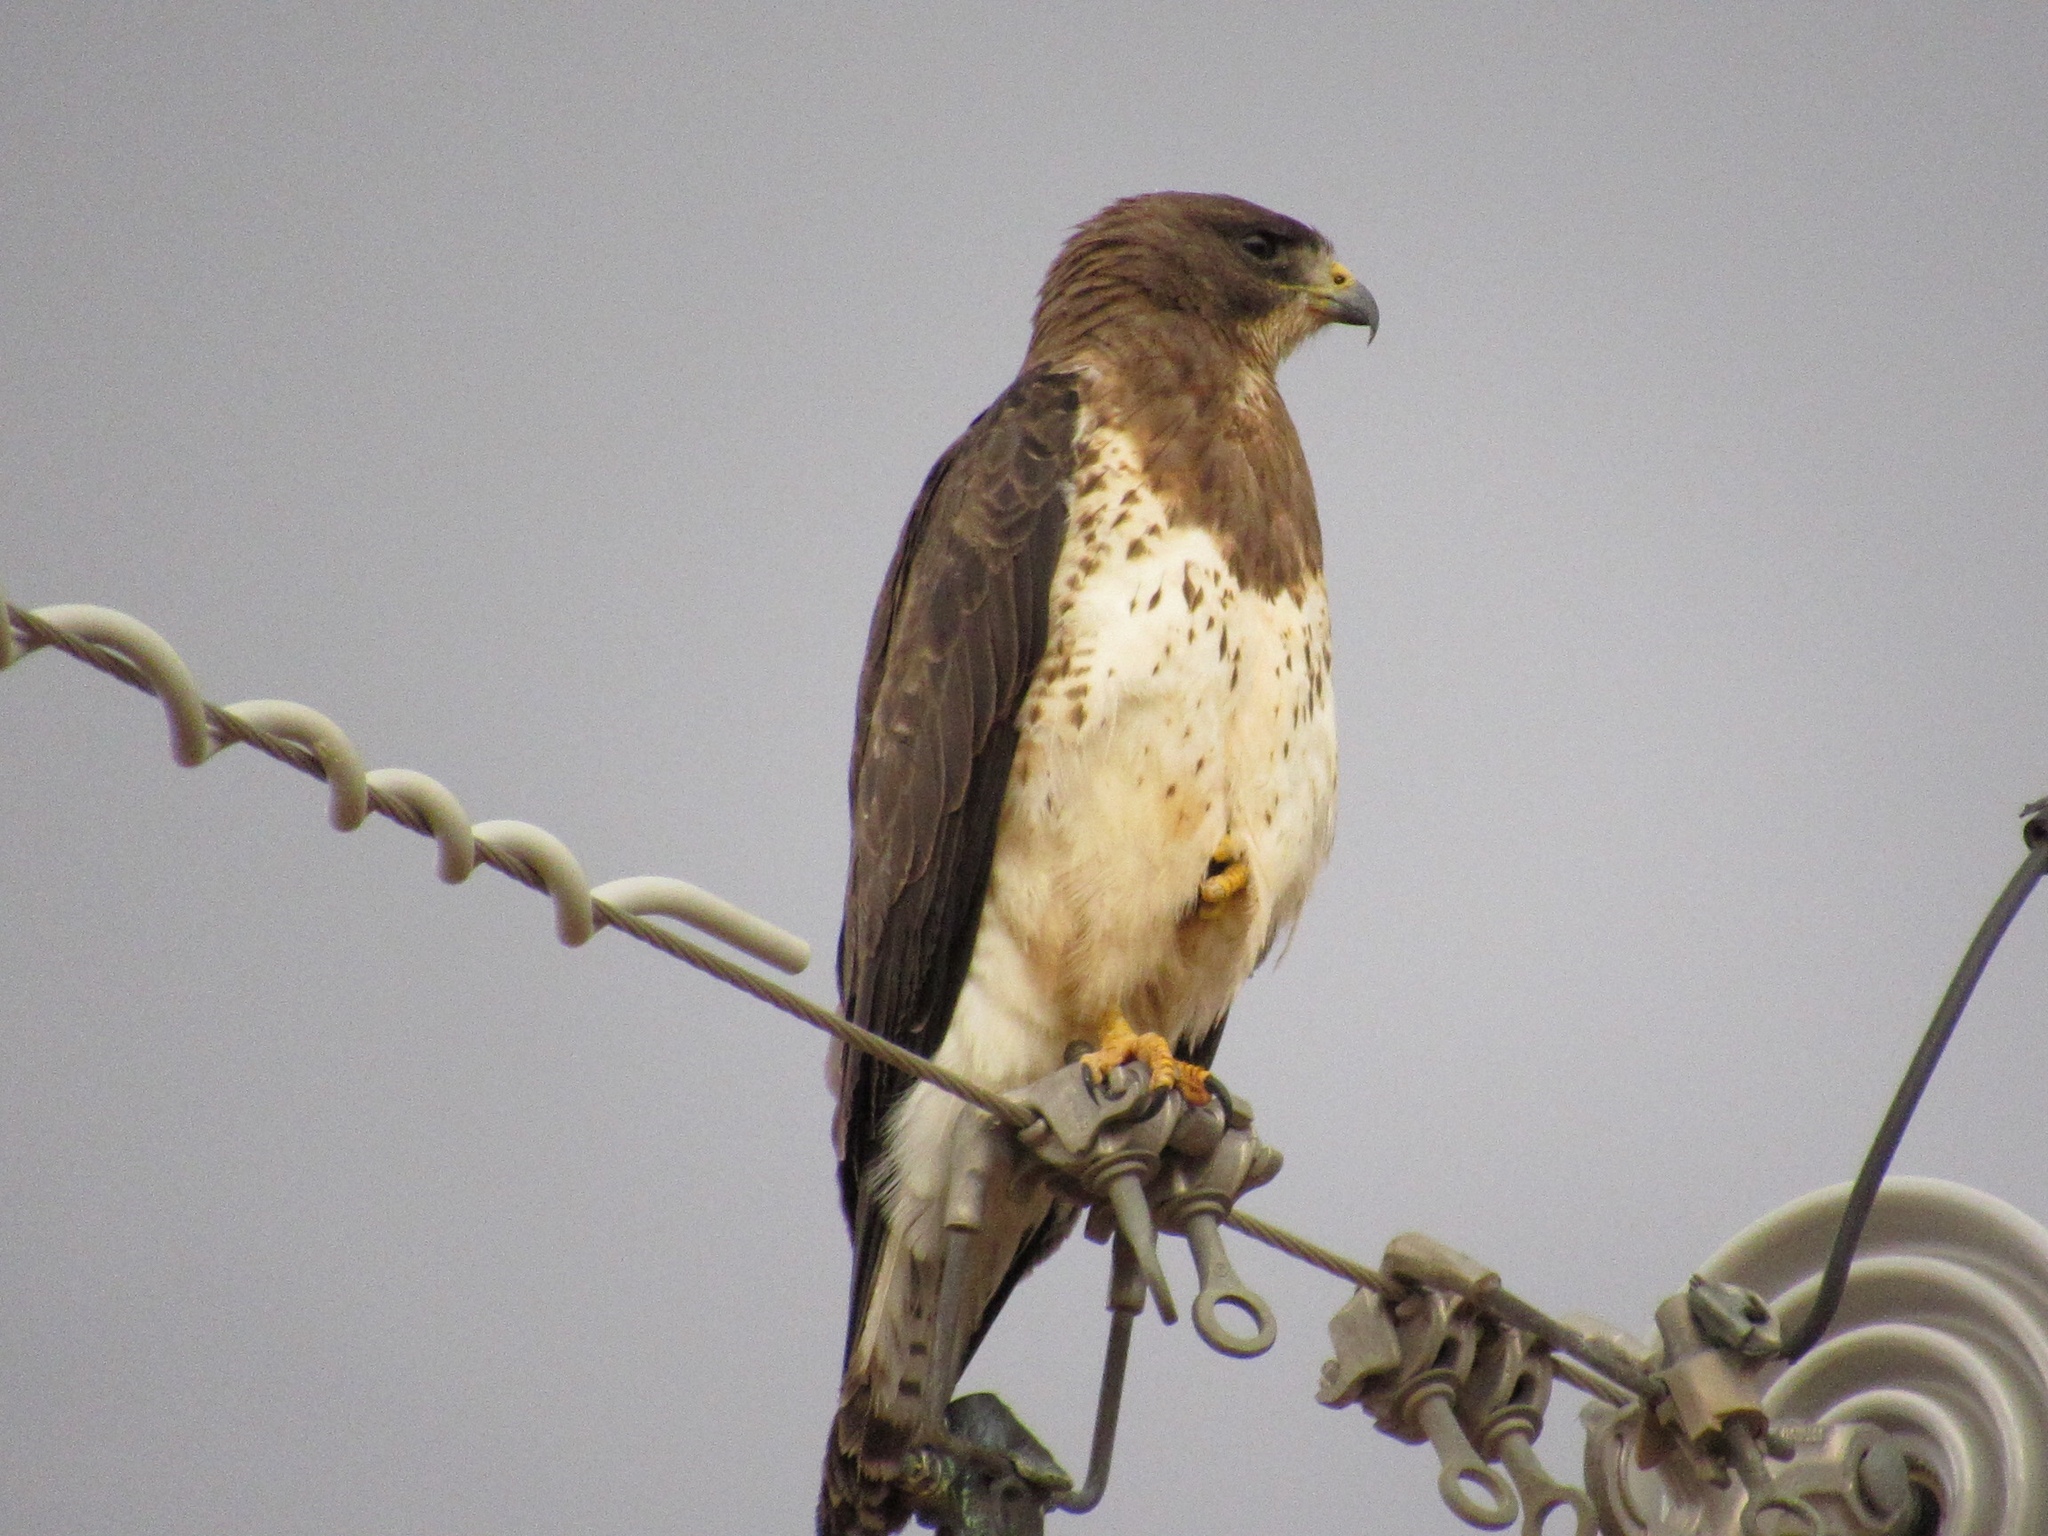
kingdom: Animalia
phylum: Chordata
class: Aves
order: Accipitriformes
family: Accipitridae
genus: Buteo
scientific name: Buteo swainsoni
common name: Swainson's hawk
